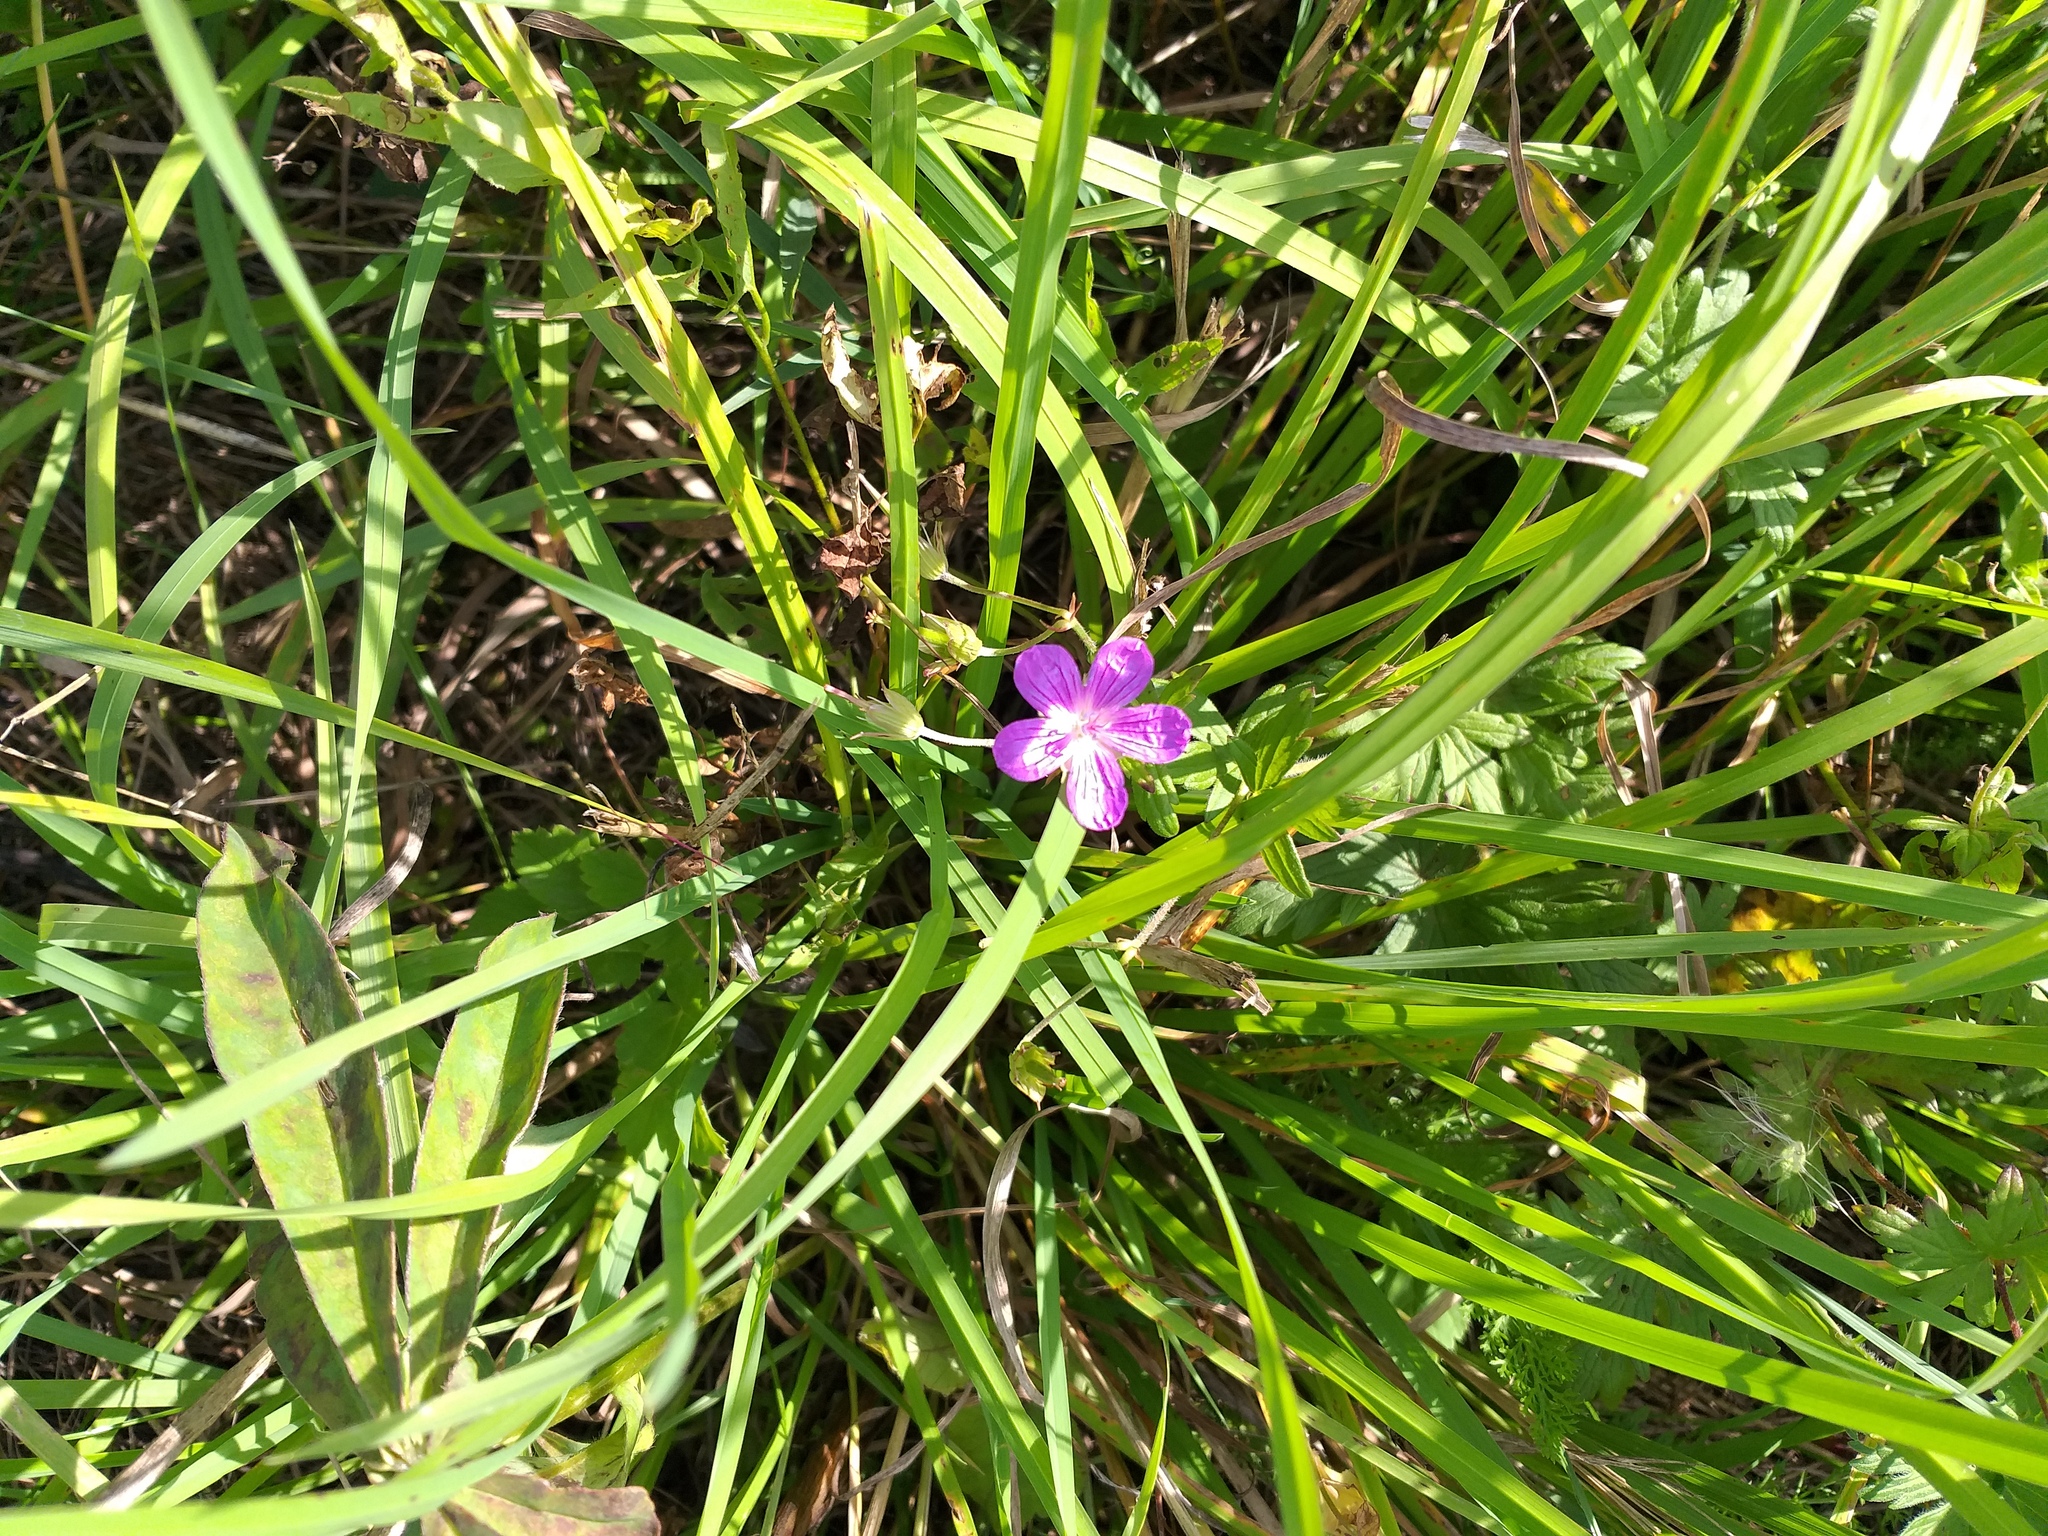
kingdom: Plantae
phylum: Tracheophyta
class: Magnoliopsida
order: Geraniales
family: Geraniaceae
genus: Geranium
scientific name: Geranium palustre
